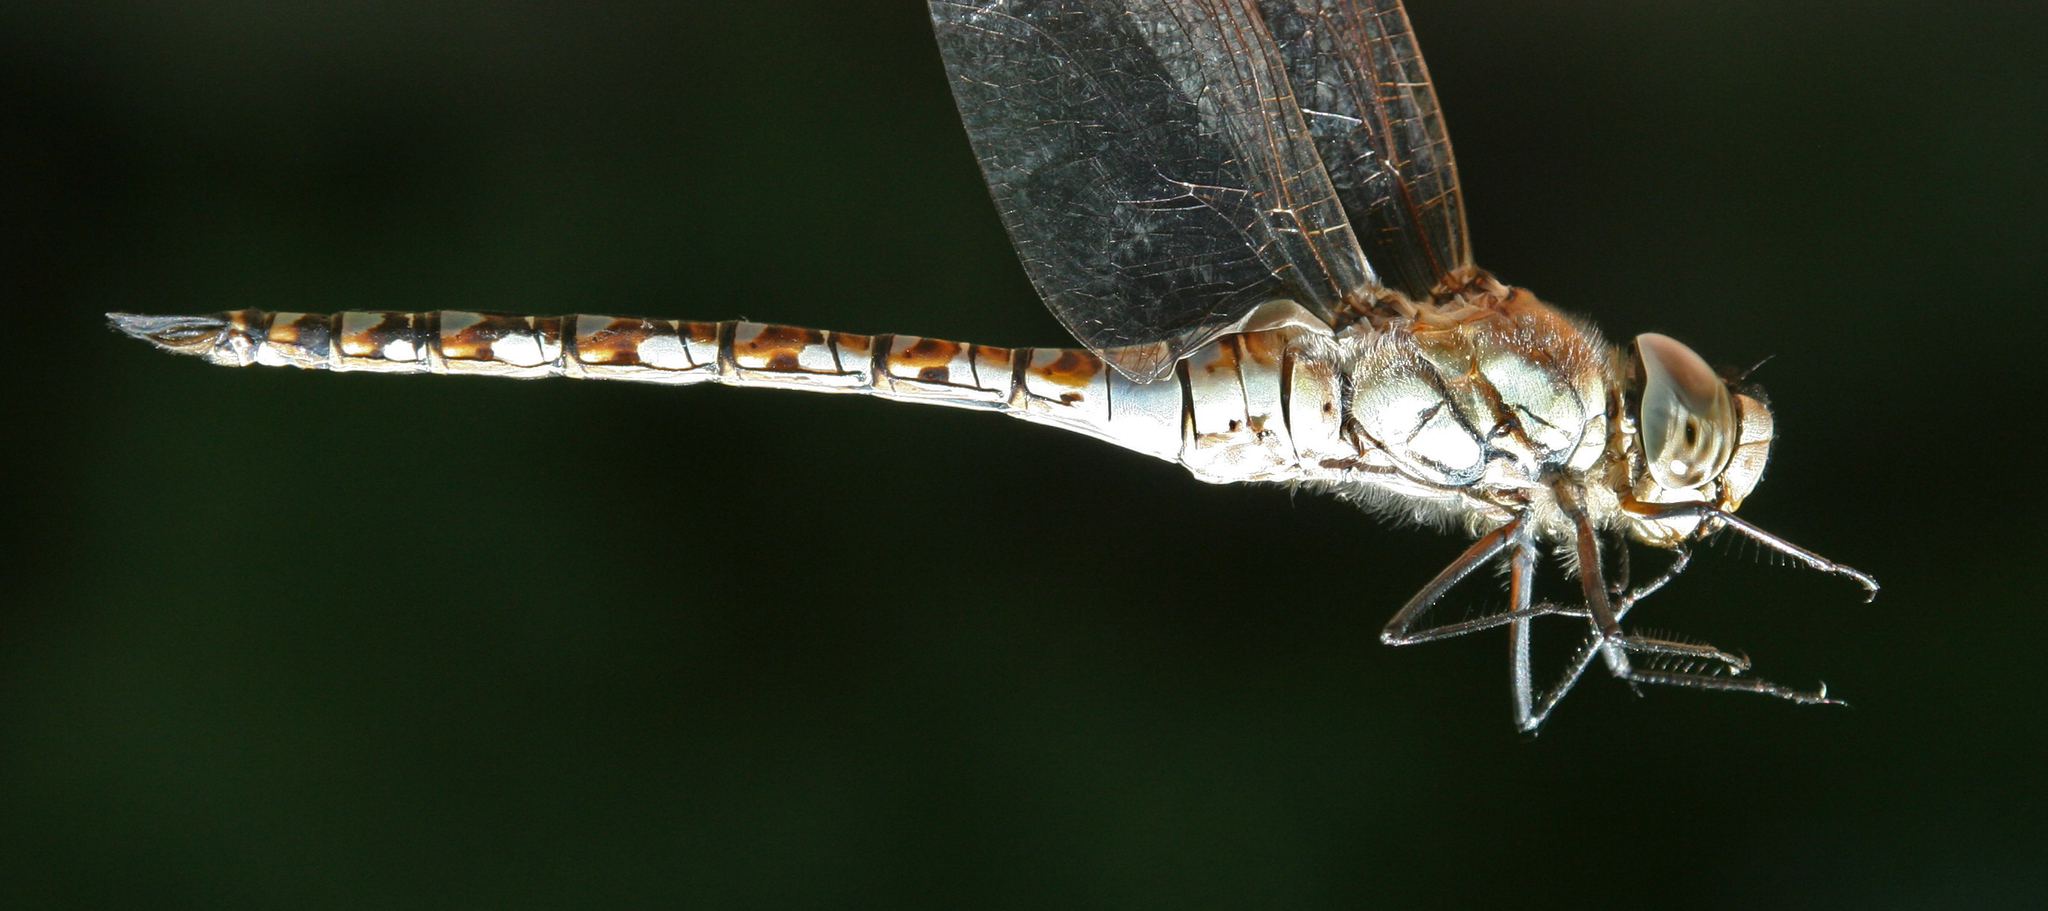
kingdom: Animalia
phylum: Arthropoda
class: Insecta
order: Odonata
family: Aeshnidae
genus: Aeshna
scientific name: Aeshna mixta
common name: Migrant hawker
